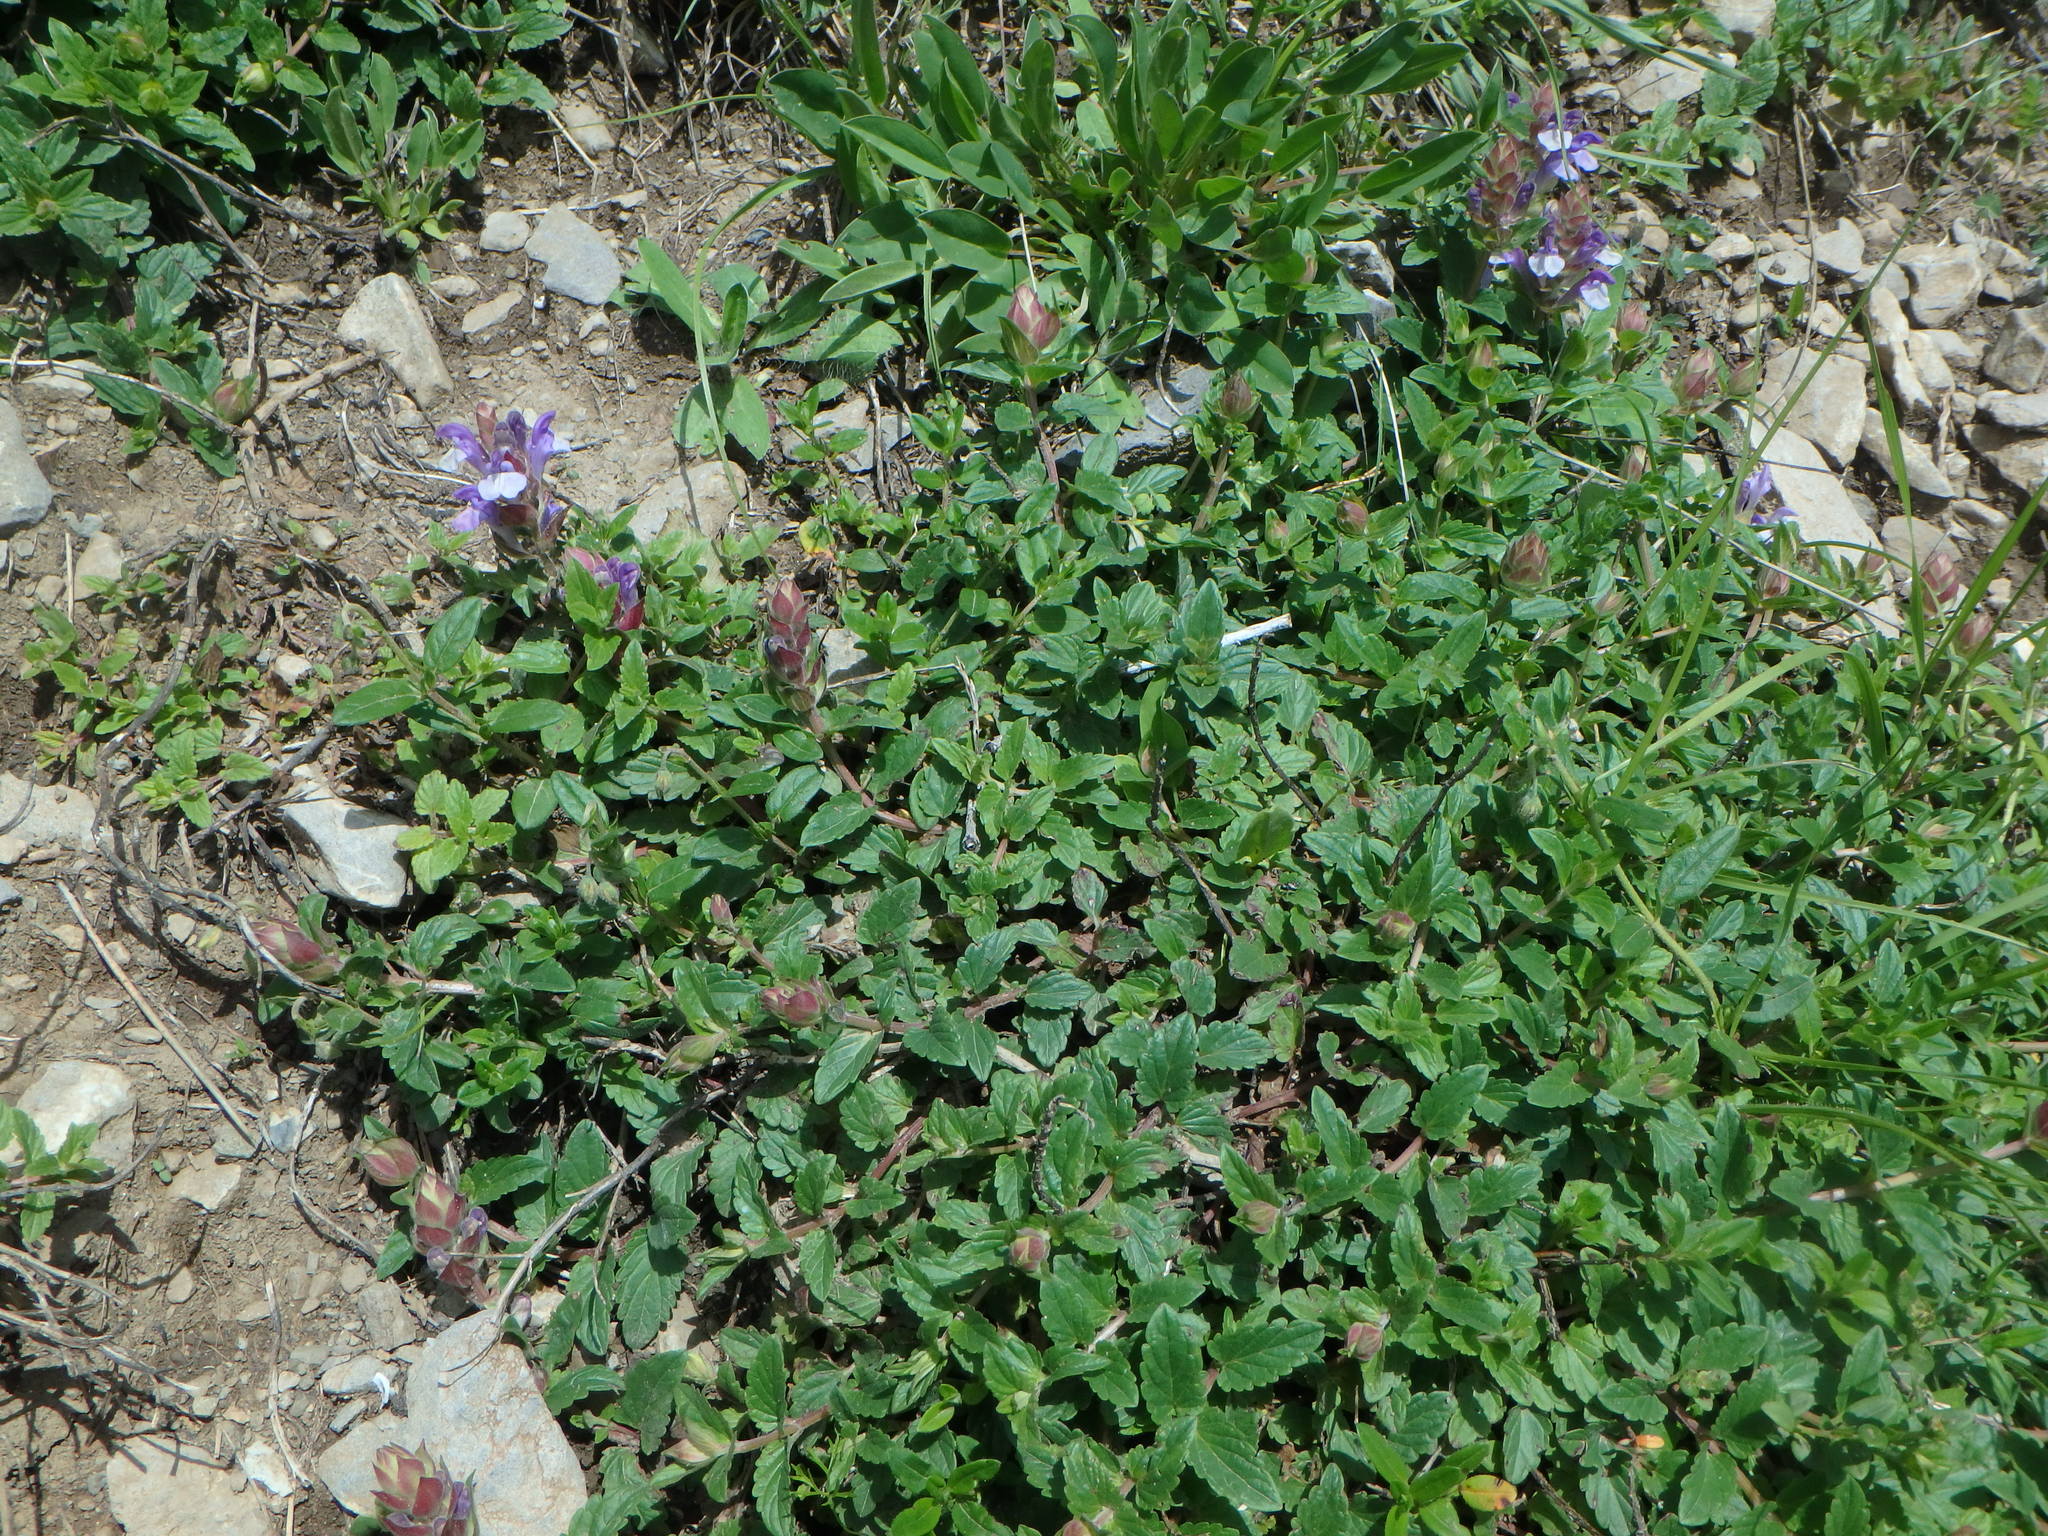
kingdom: Plantae
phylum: Tracheophyta
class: Magnoliopsida
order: Lamiales
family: Lamiaceae
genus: Scutellaria
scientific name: Scutellaria alpina
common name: Alpine scullcap
